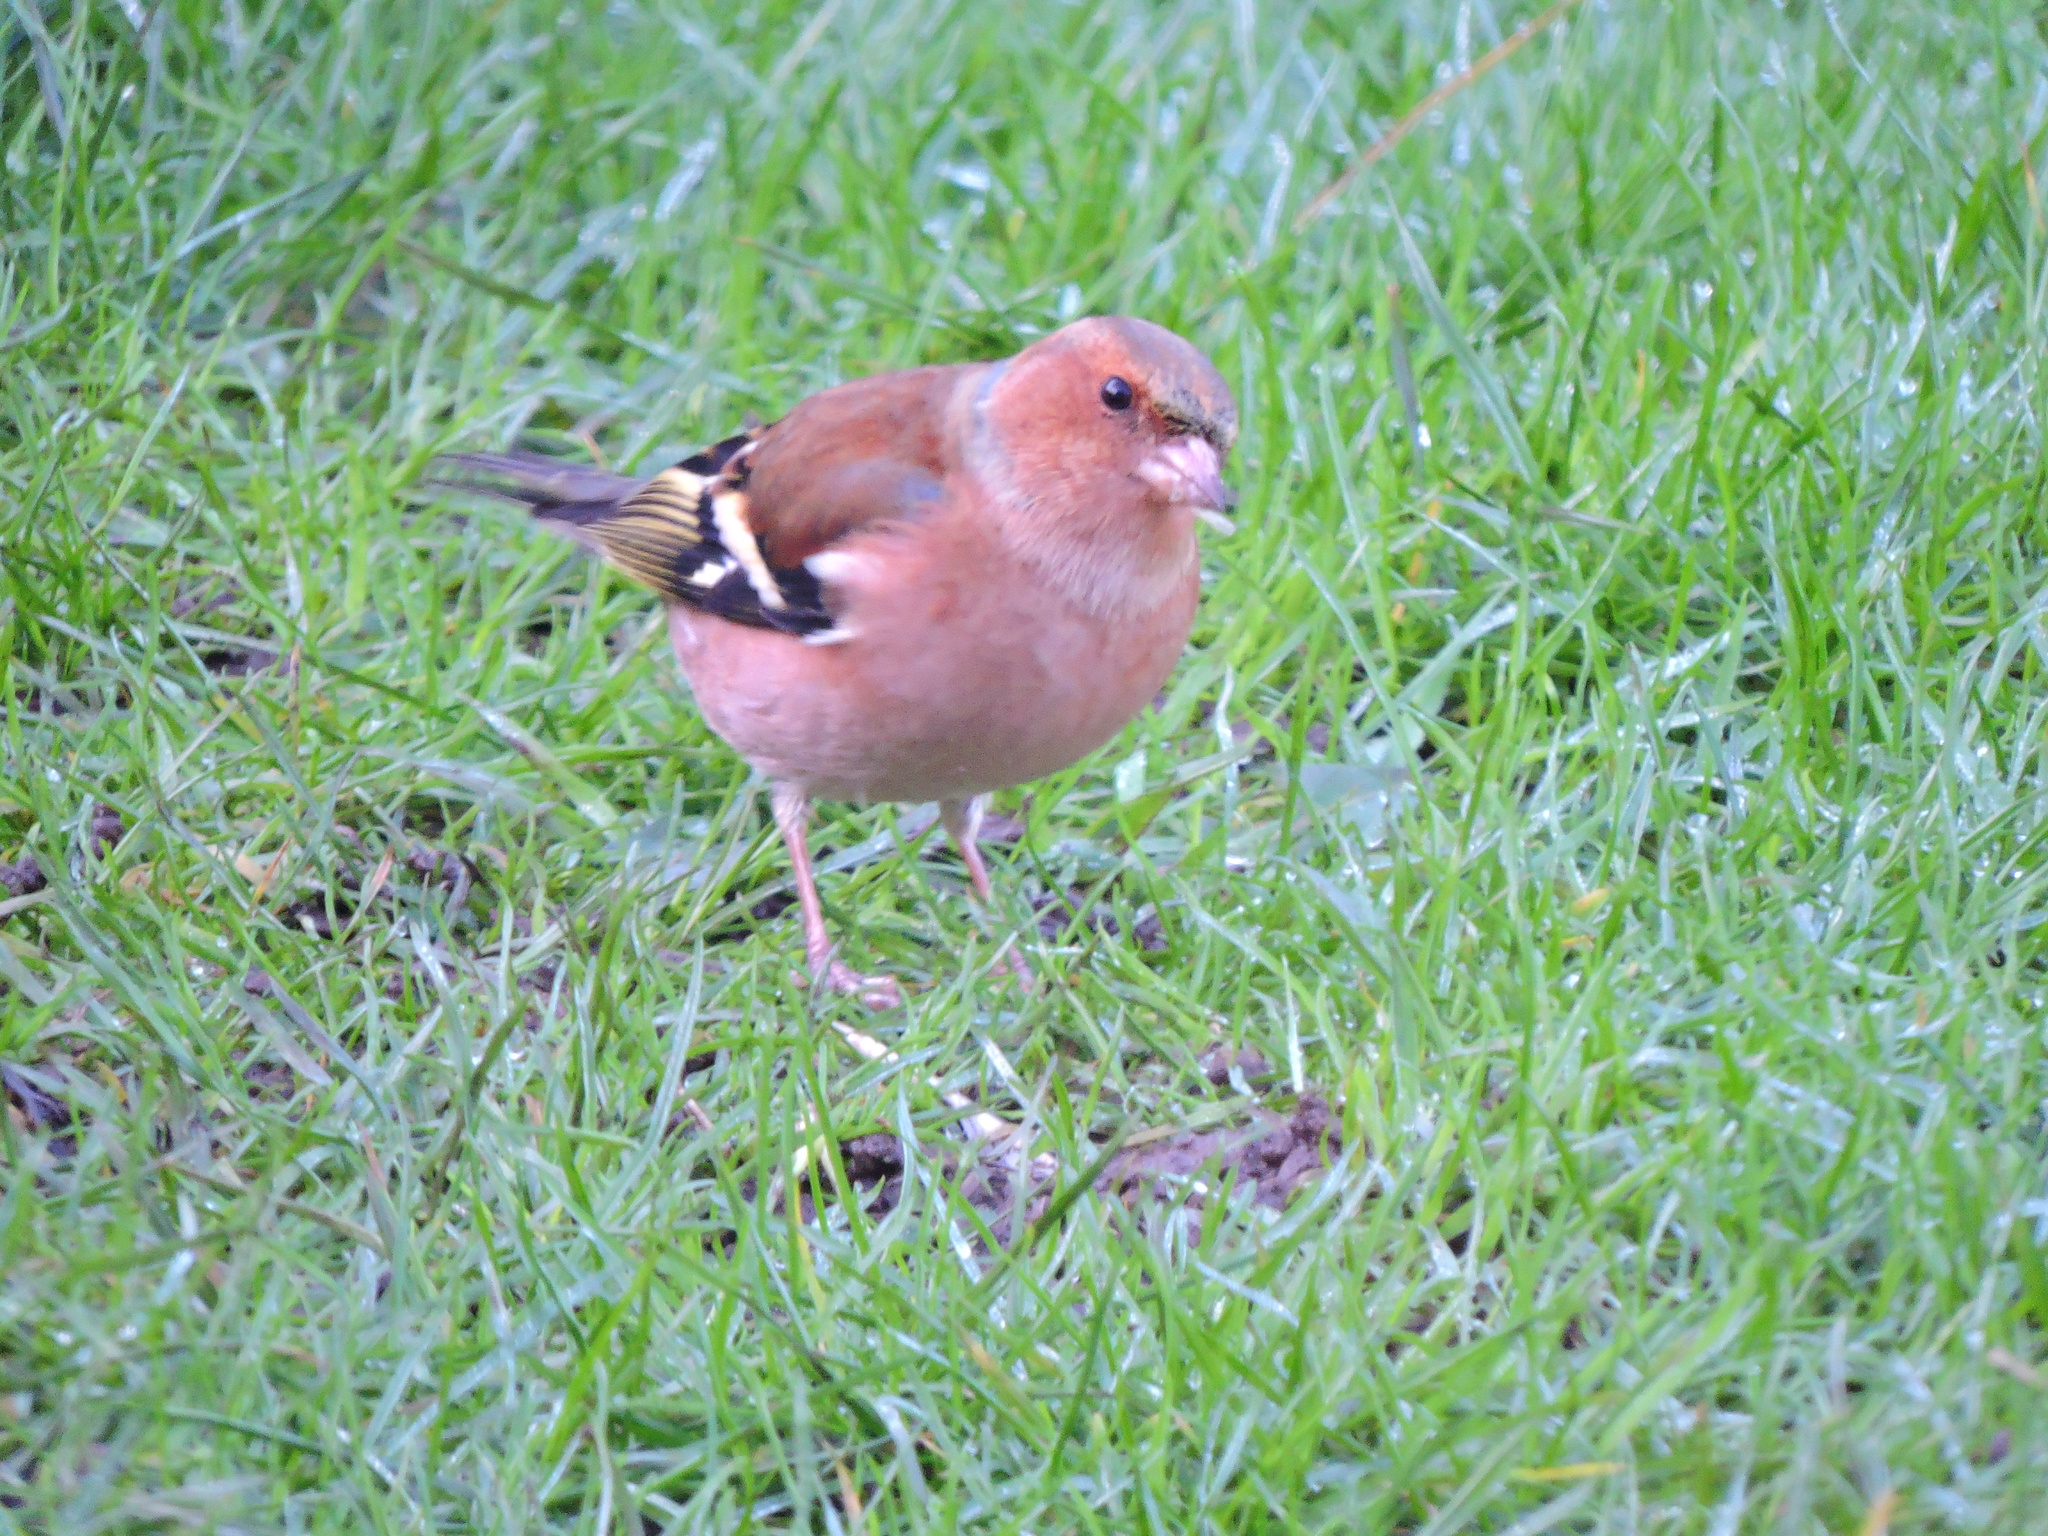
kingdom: Animalia
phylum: Chordata
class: Aves
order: Passeriformes
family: Fringillidae
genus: Fringilla
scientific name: Fringilla coelebs
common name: Common chaffinch
